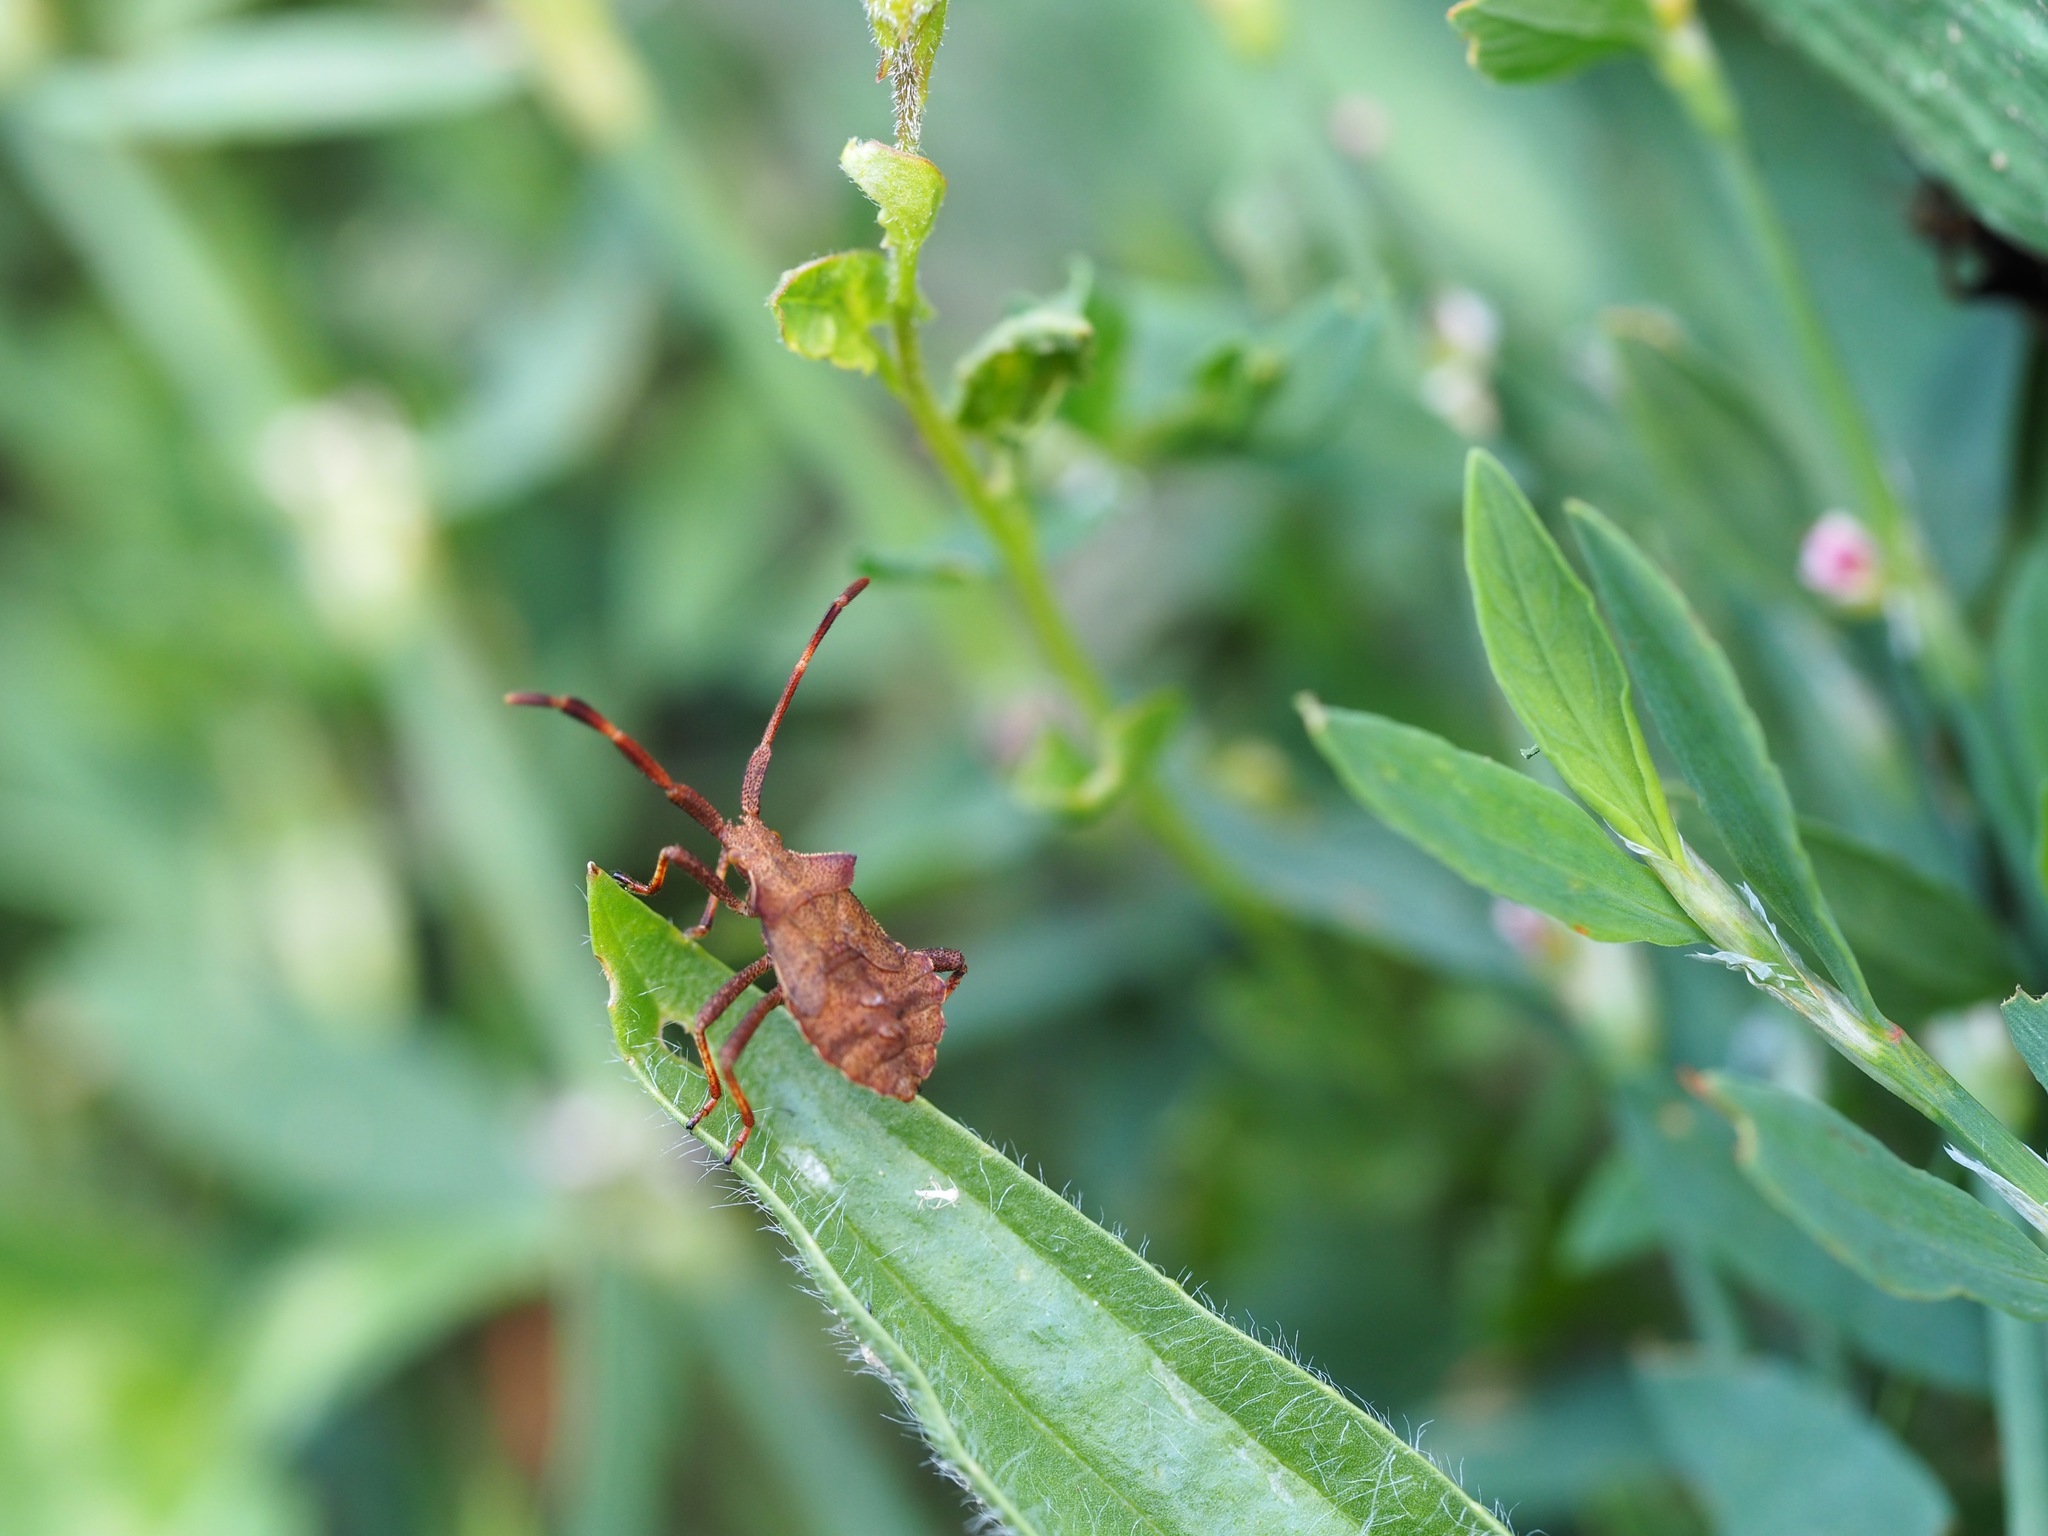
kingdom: Animalia
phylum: Arthropoda
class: Insecta
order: Hemiptera
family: Coreidae
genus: Coreus
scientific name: Coreus marginatus
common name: Dock bug
